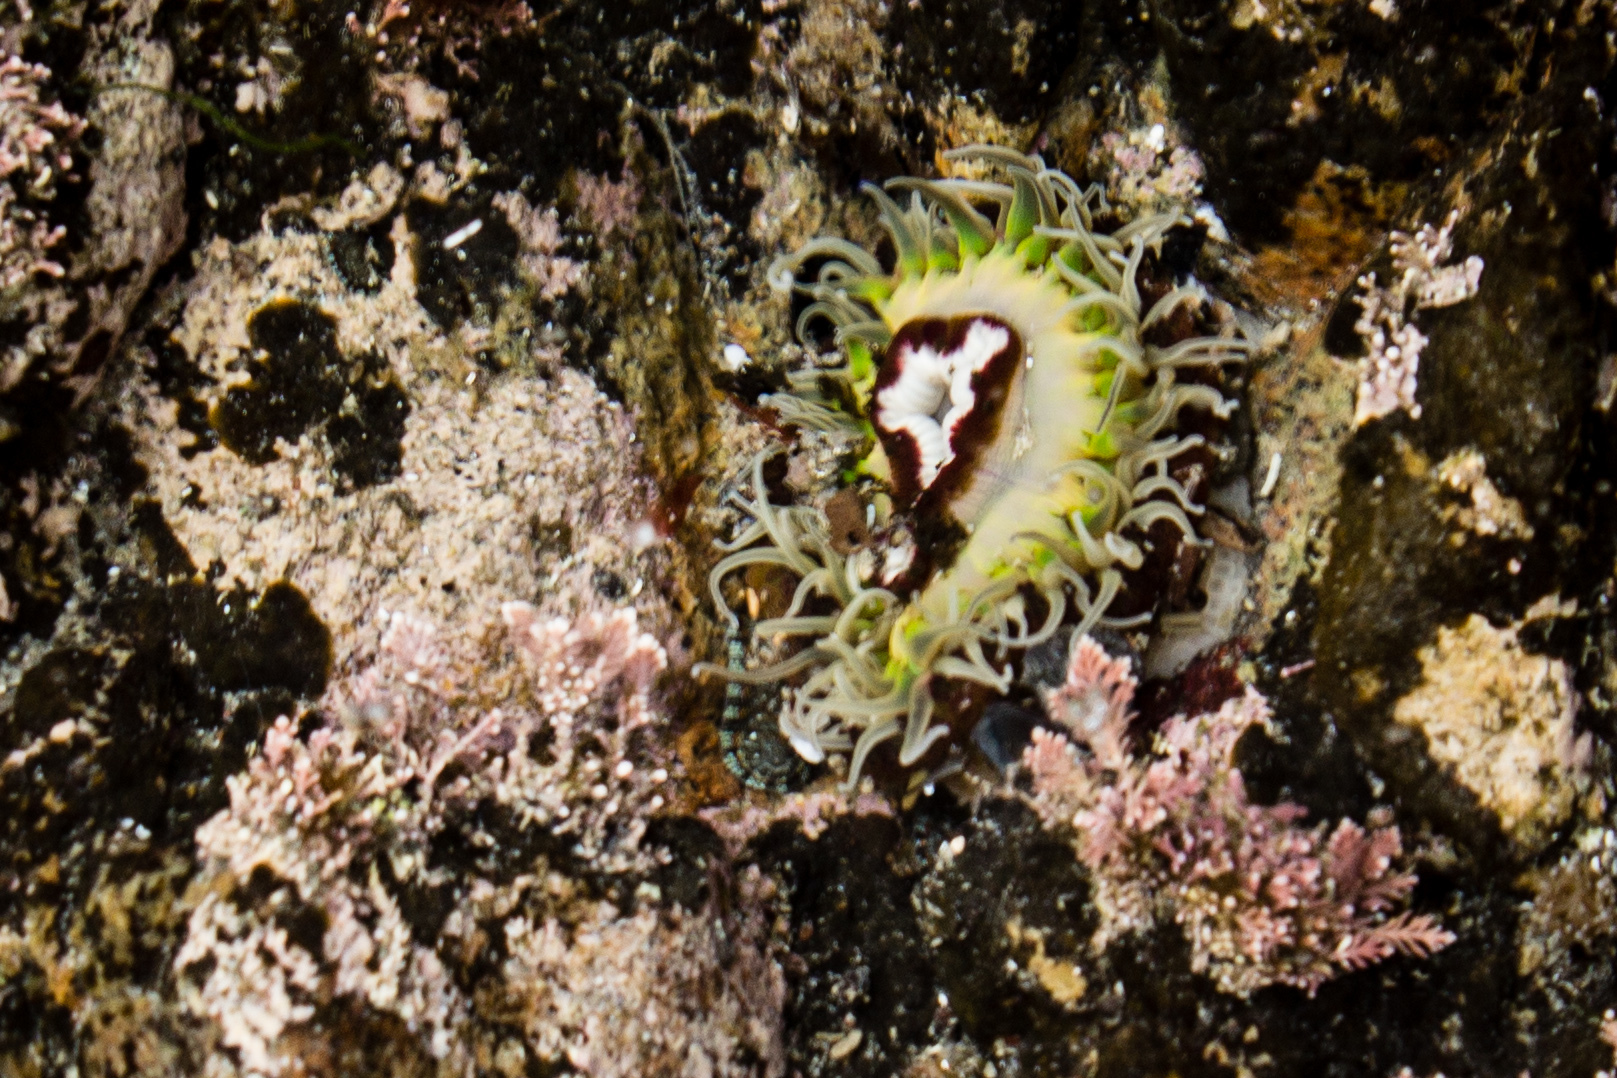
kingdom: Animalia
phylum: Cnidaria
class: Anthozoa
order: Actiniaria
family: Actiniidae
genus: Oulactis
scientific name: Oulactis magna
